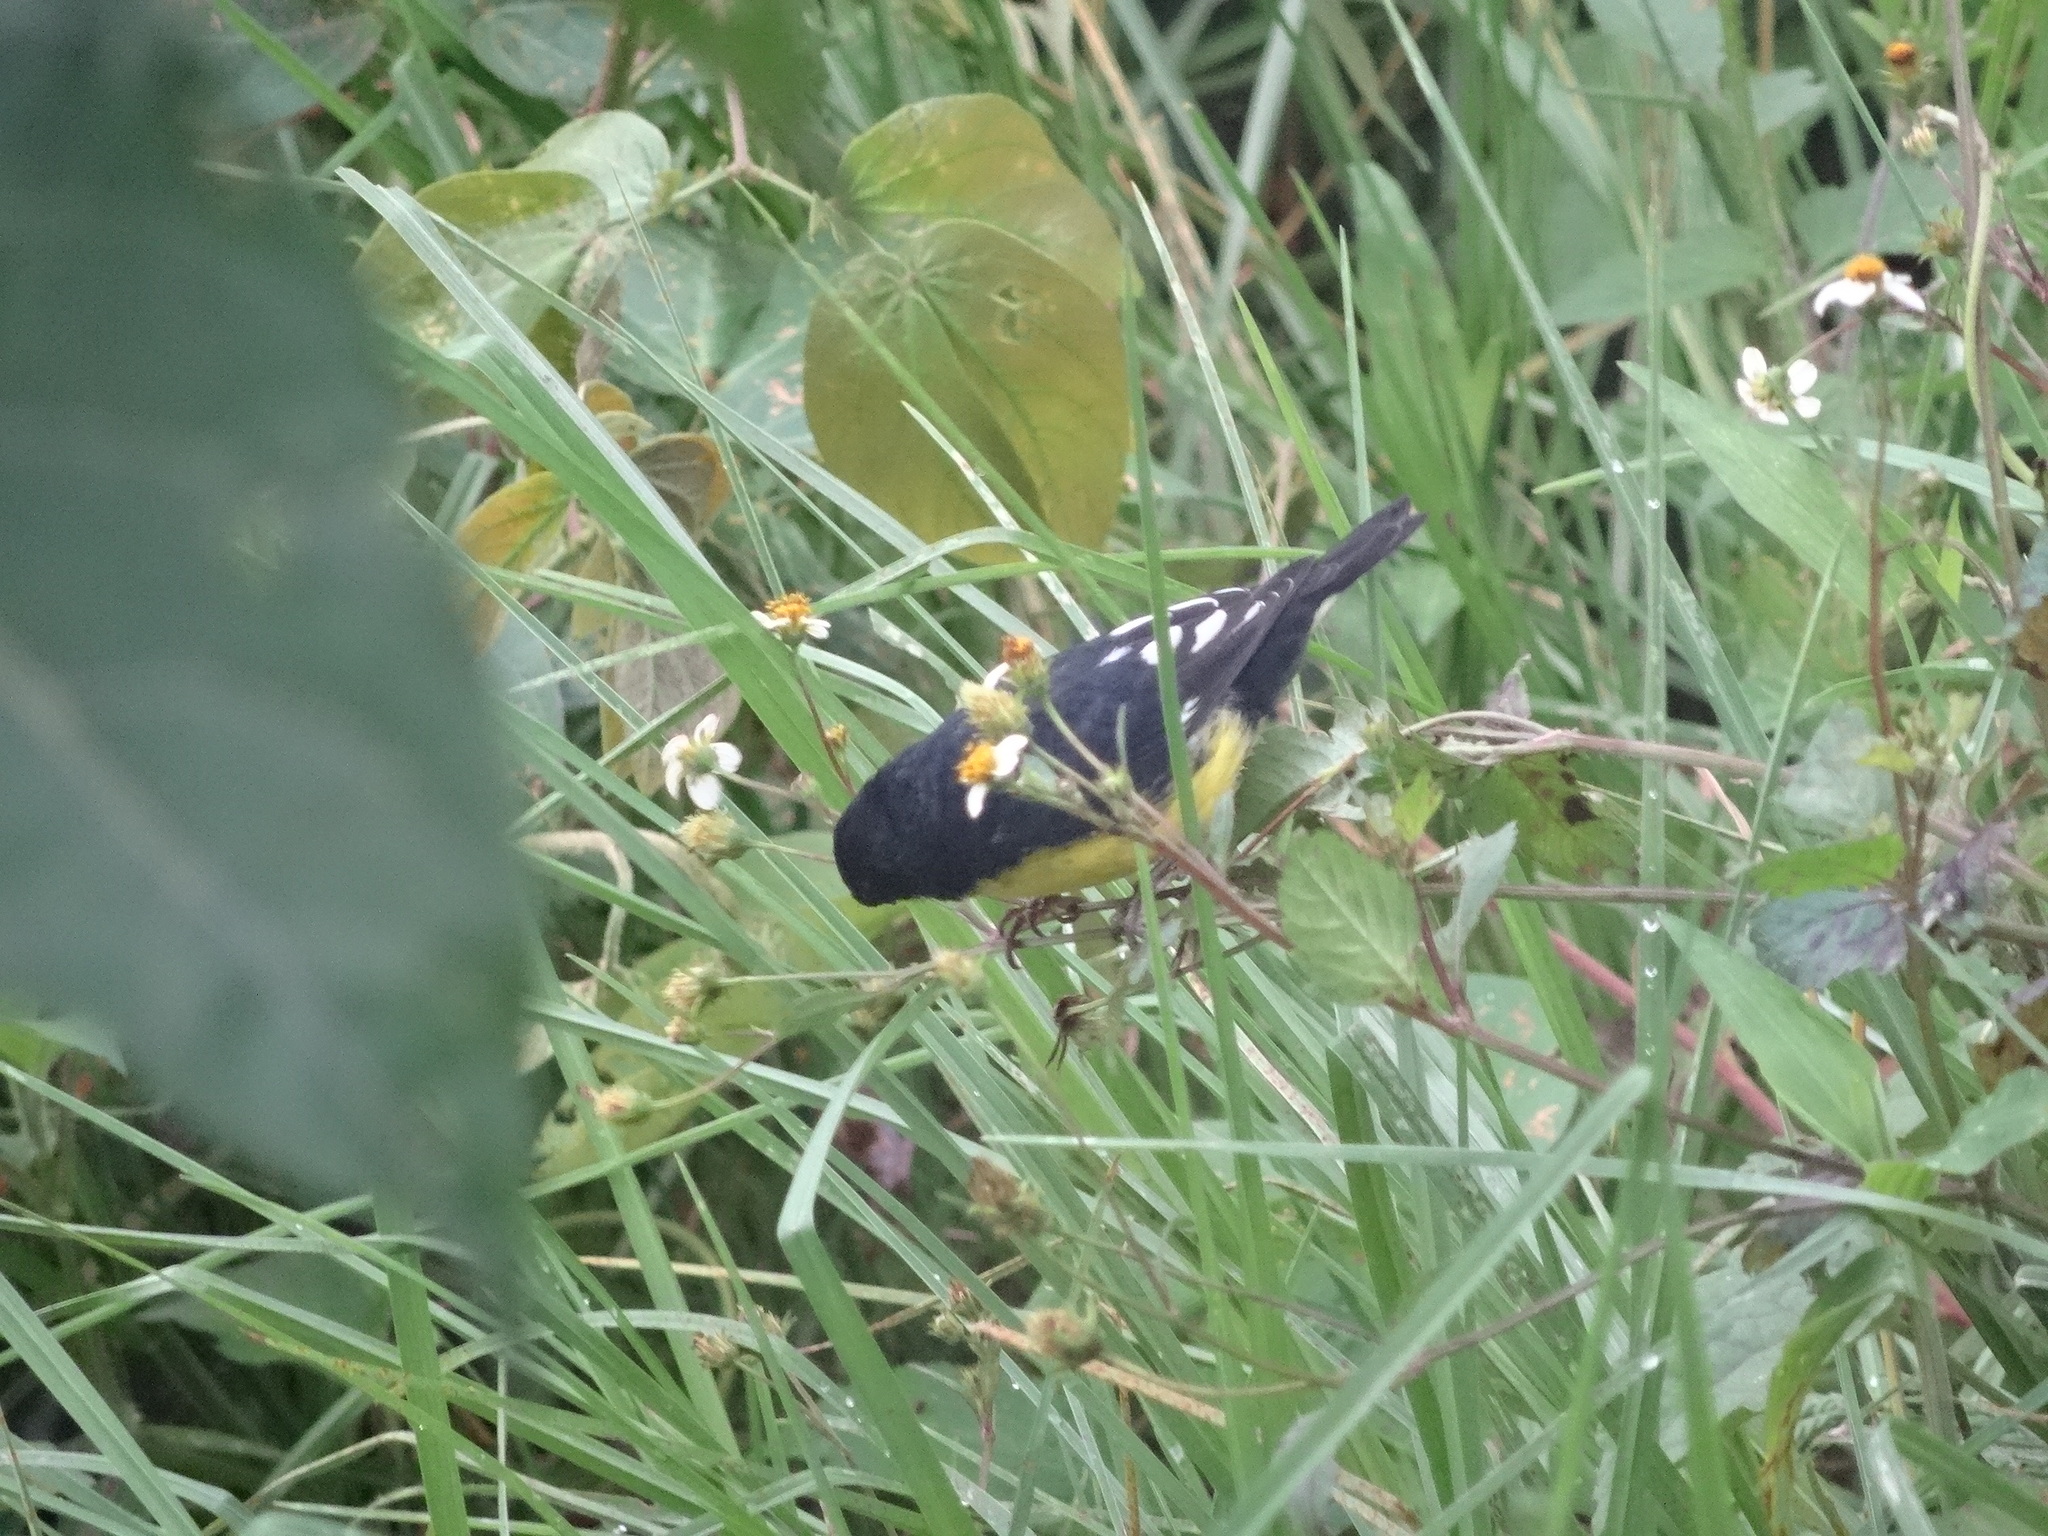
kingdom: Animalia
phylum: Chordata
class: Aves
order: Passeriformes
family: Fringillidae
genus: Spinus
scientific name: Spinus psaltria
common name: Lesser goldfinch
